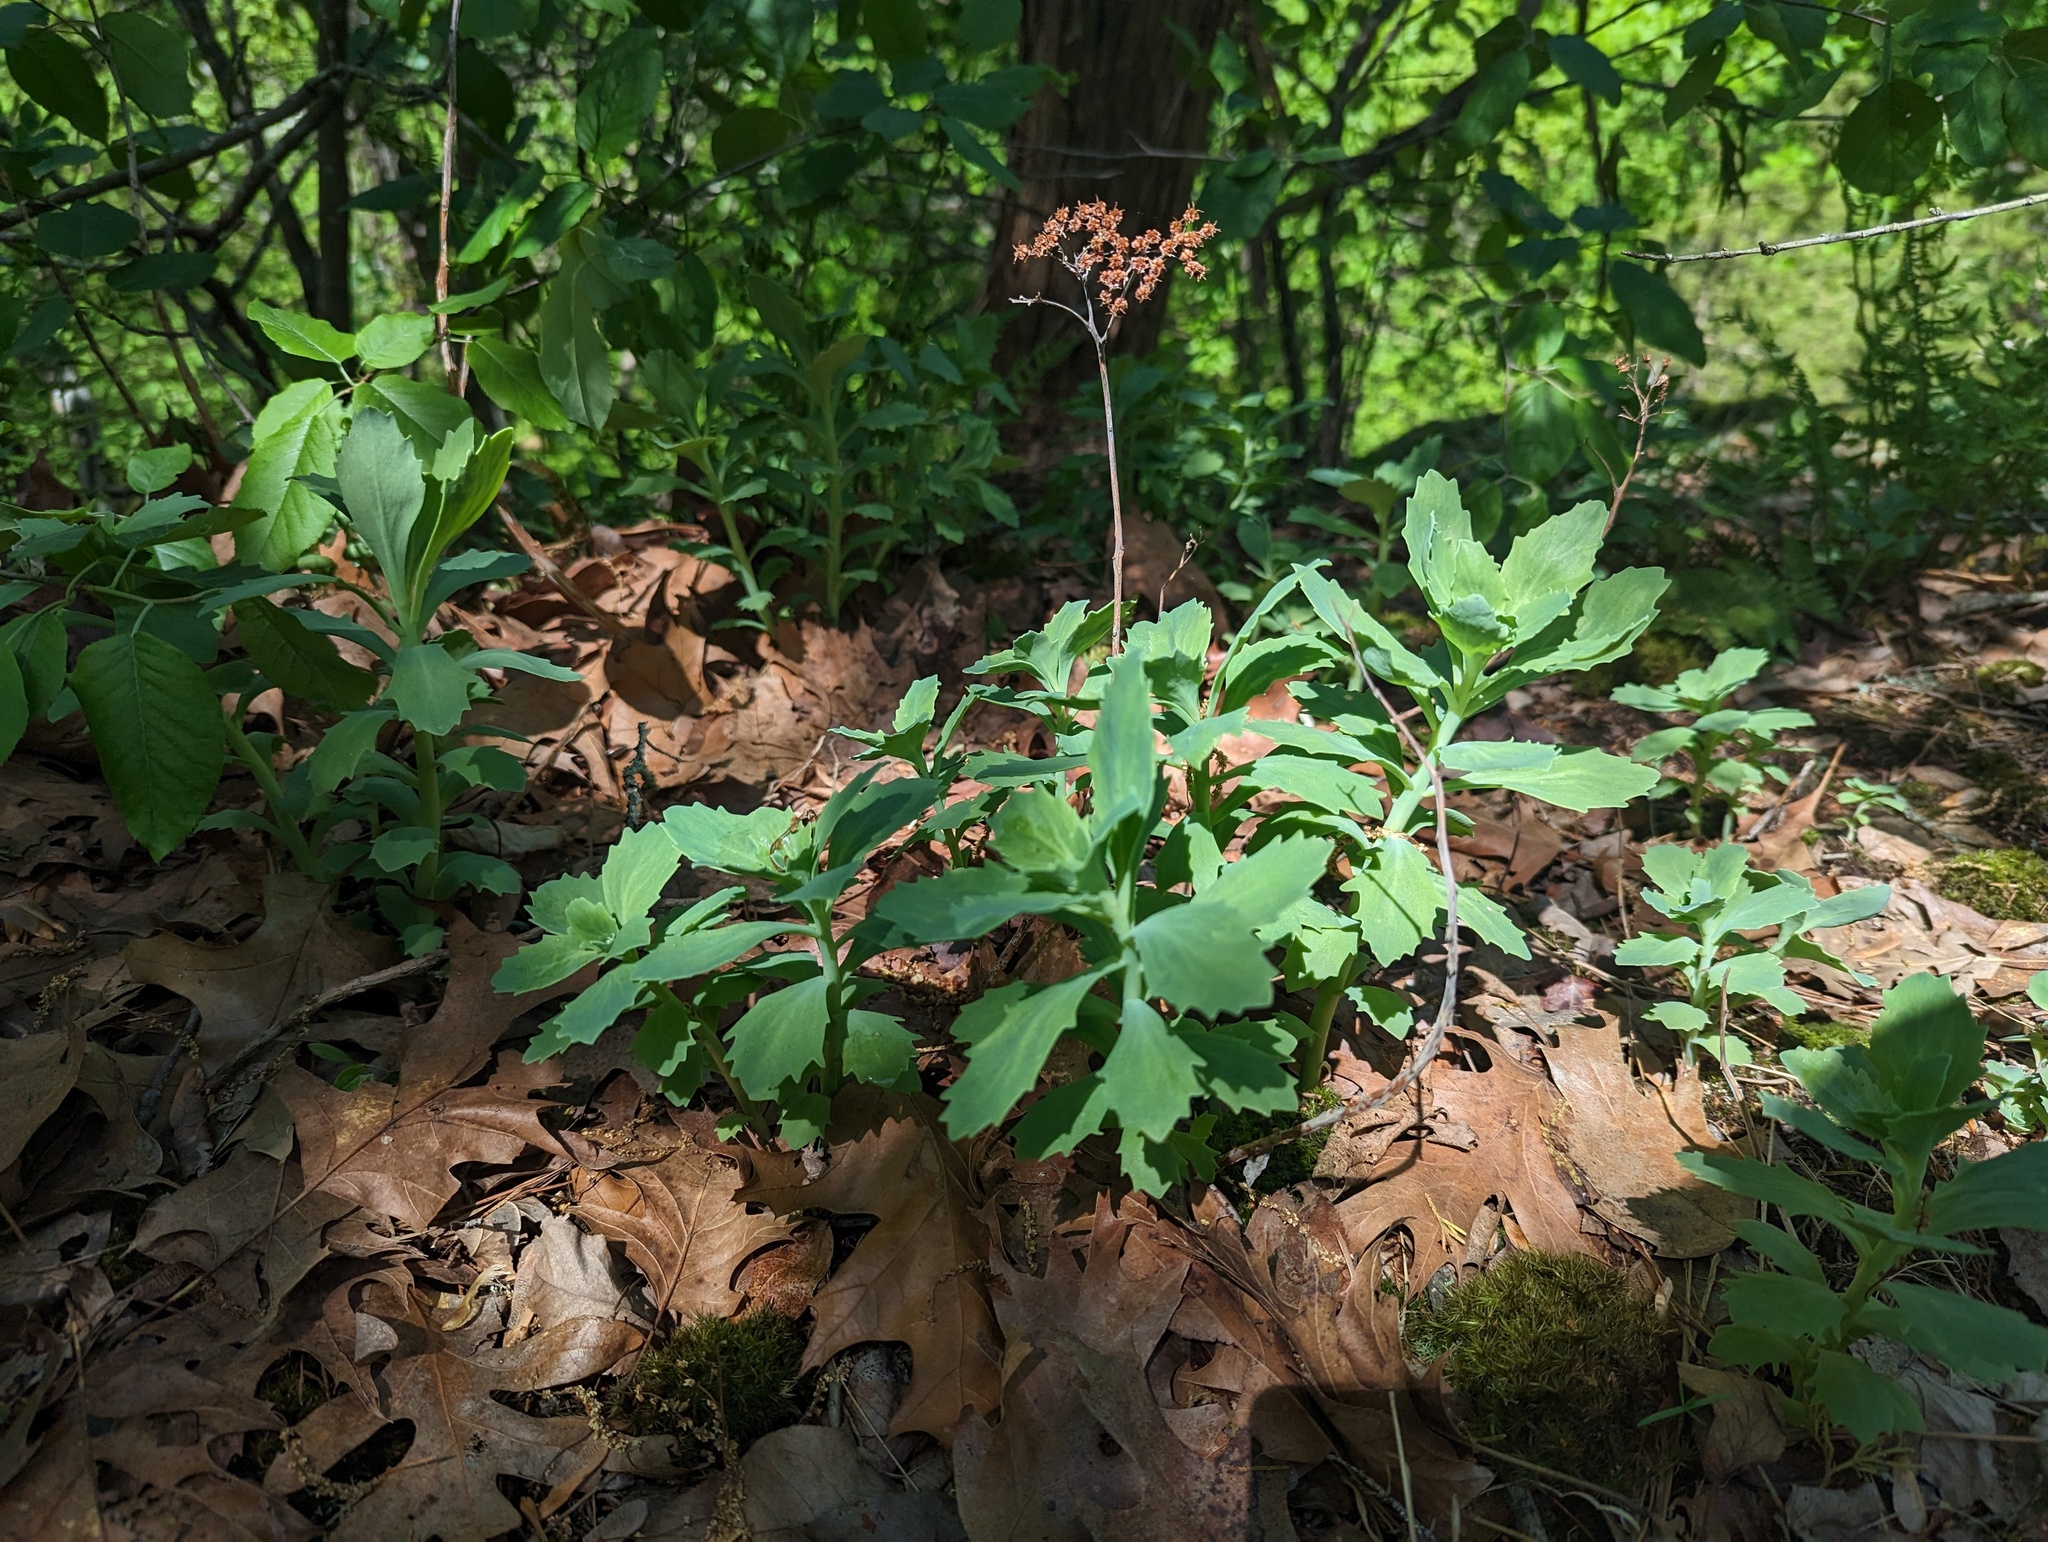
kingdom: Plantae
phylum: Tracheophyta
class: Magnoliopsida
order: Saxifragales
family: Crassulaceae
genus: Hylotelephium
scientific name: Hylotelephium telephioides
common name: Allegheny stonecrop
